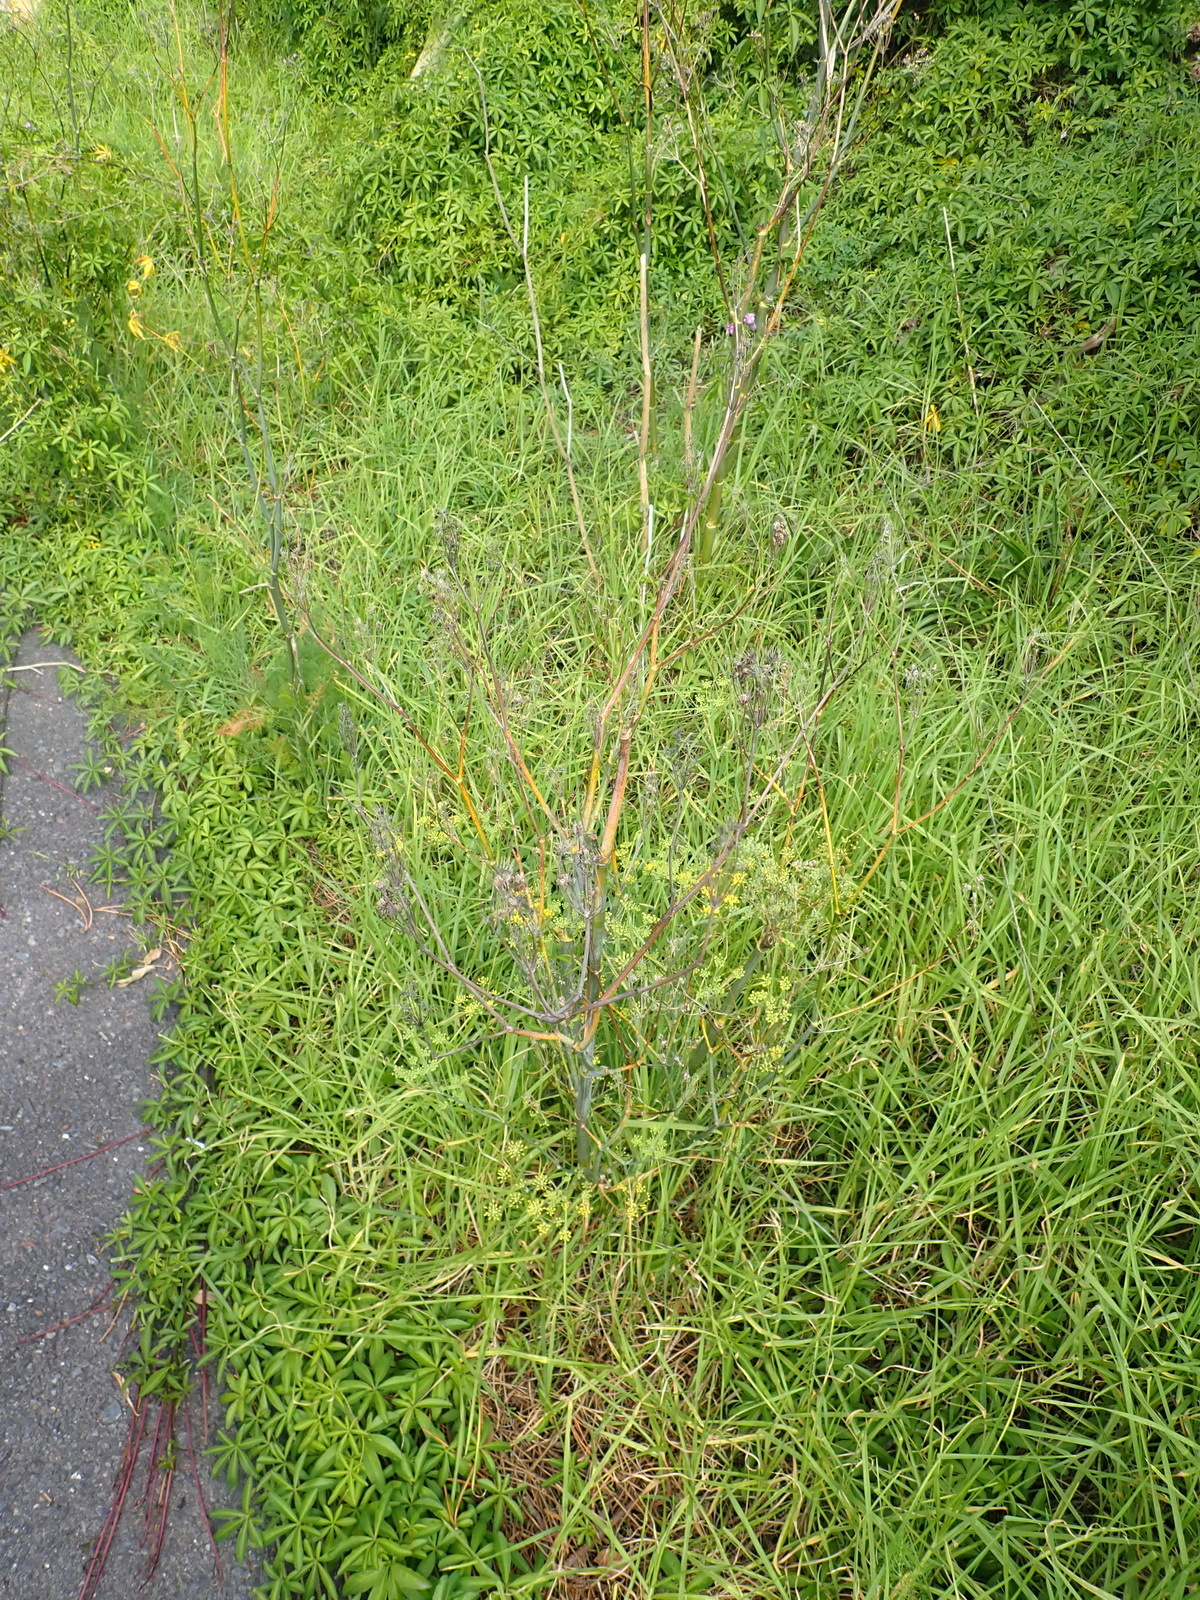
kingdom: Plantae
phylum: Tracheophyta
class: Magnoliopsida
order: Apiales
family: Apiaceae
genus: Foeniculum
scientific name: Foeniculum vulgare
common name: Fennel
